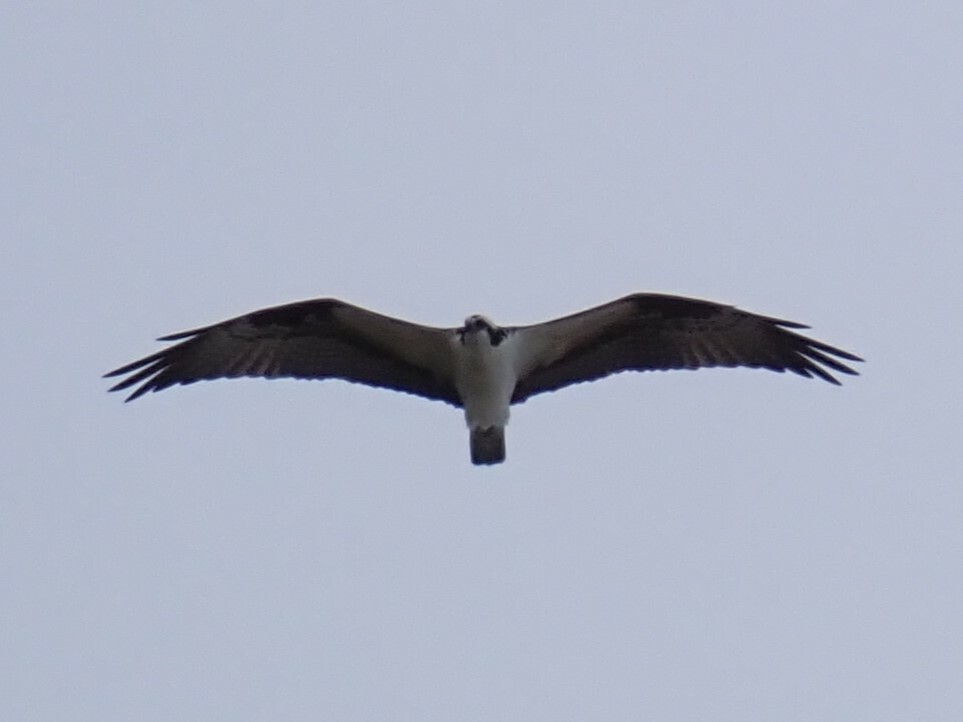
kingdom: Animalia
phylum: Chordata
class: Aves
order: Accipitriformes
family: Pandionidae
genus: Pandion
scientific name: Pandion haliaetus
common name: Osprey
